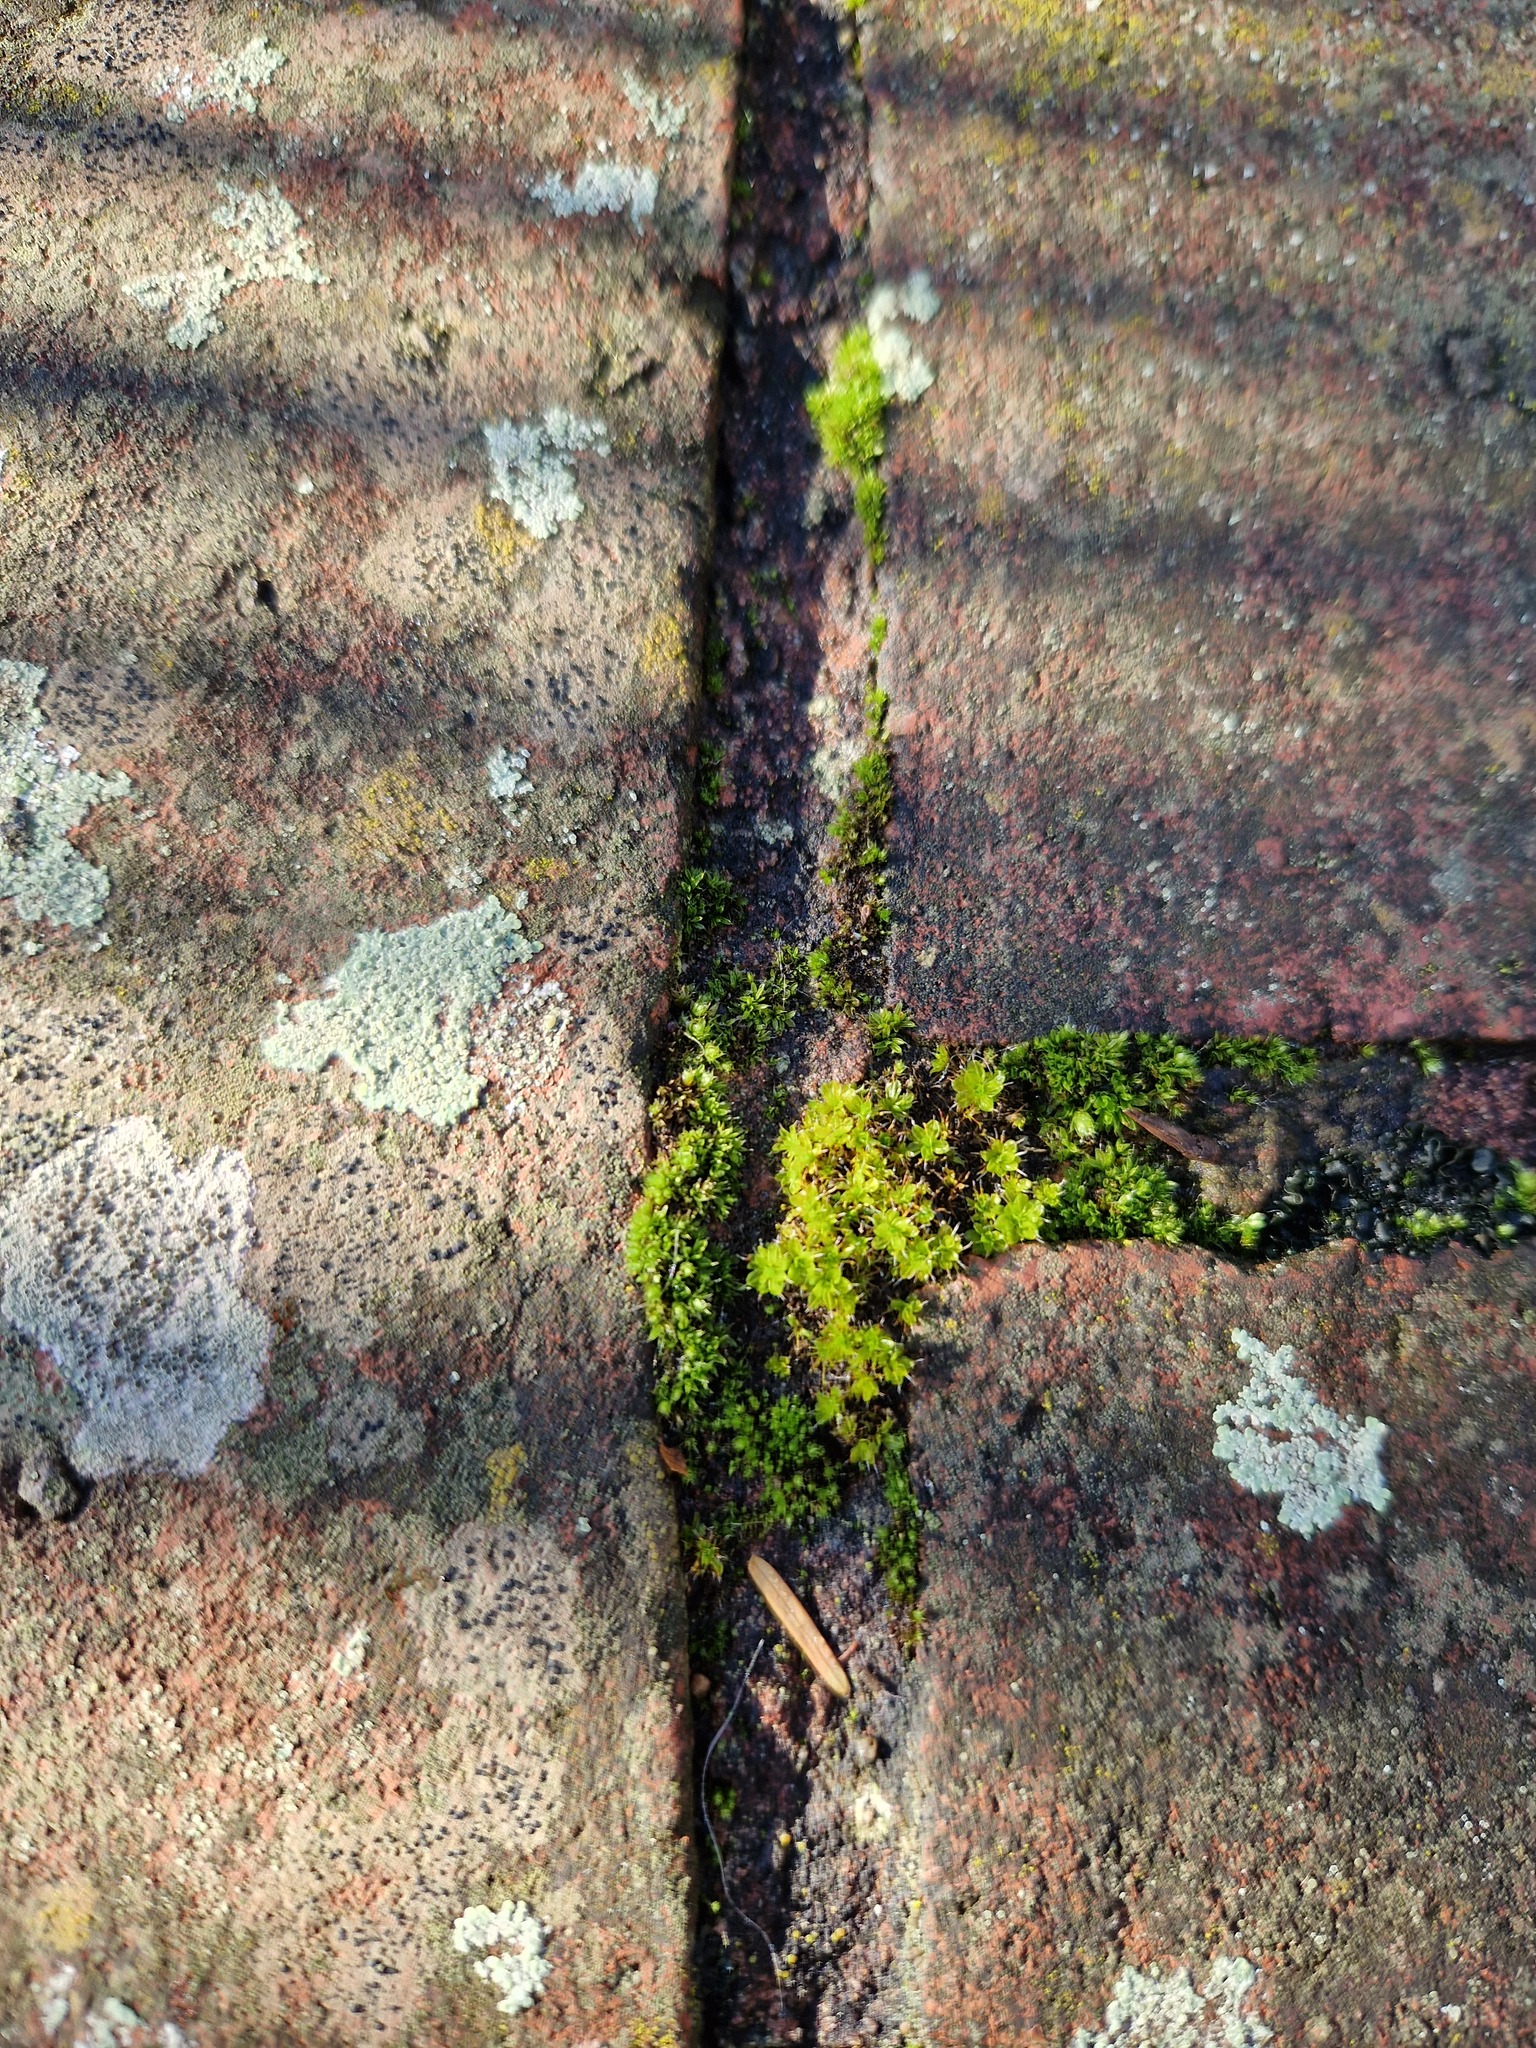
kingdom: Plantae
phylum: Bryophyta
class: Bryopsida
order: Pottiales
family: Pottiaceae
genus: Syntrichia
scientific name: Syntrichia montana
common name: Intermediate screw-moss
